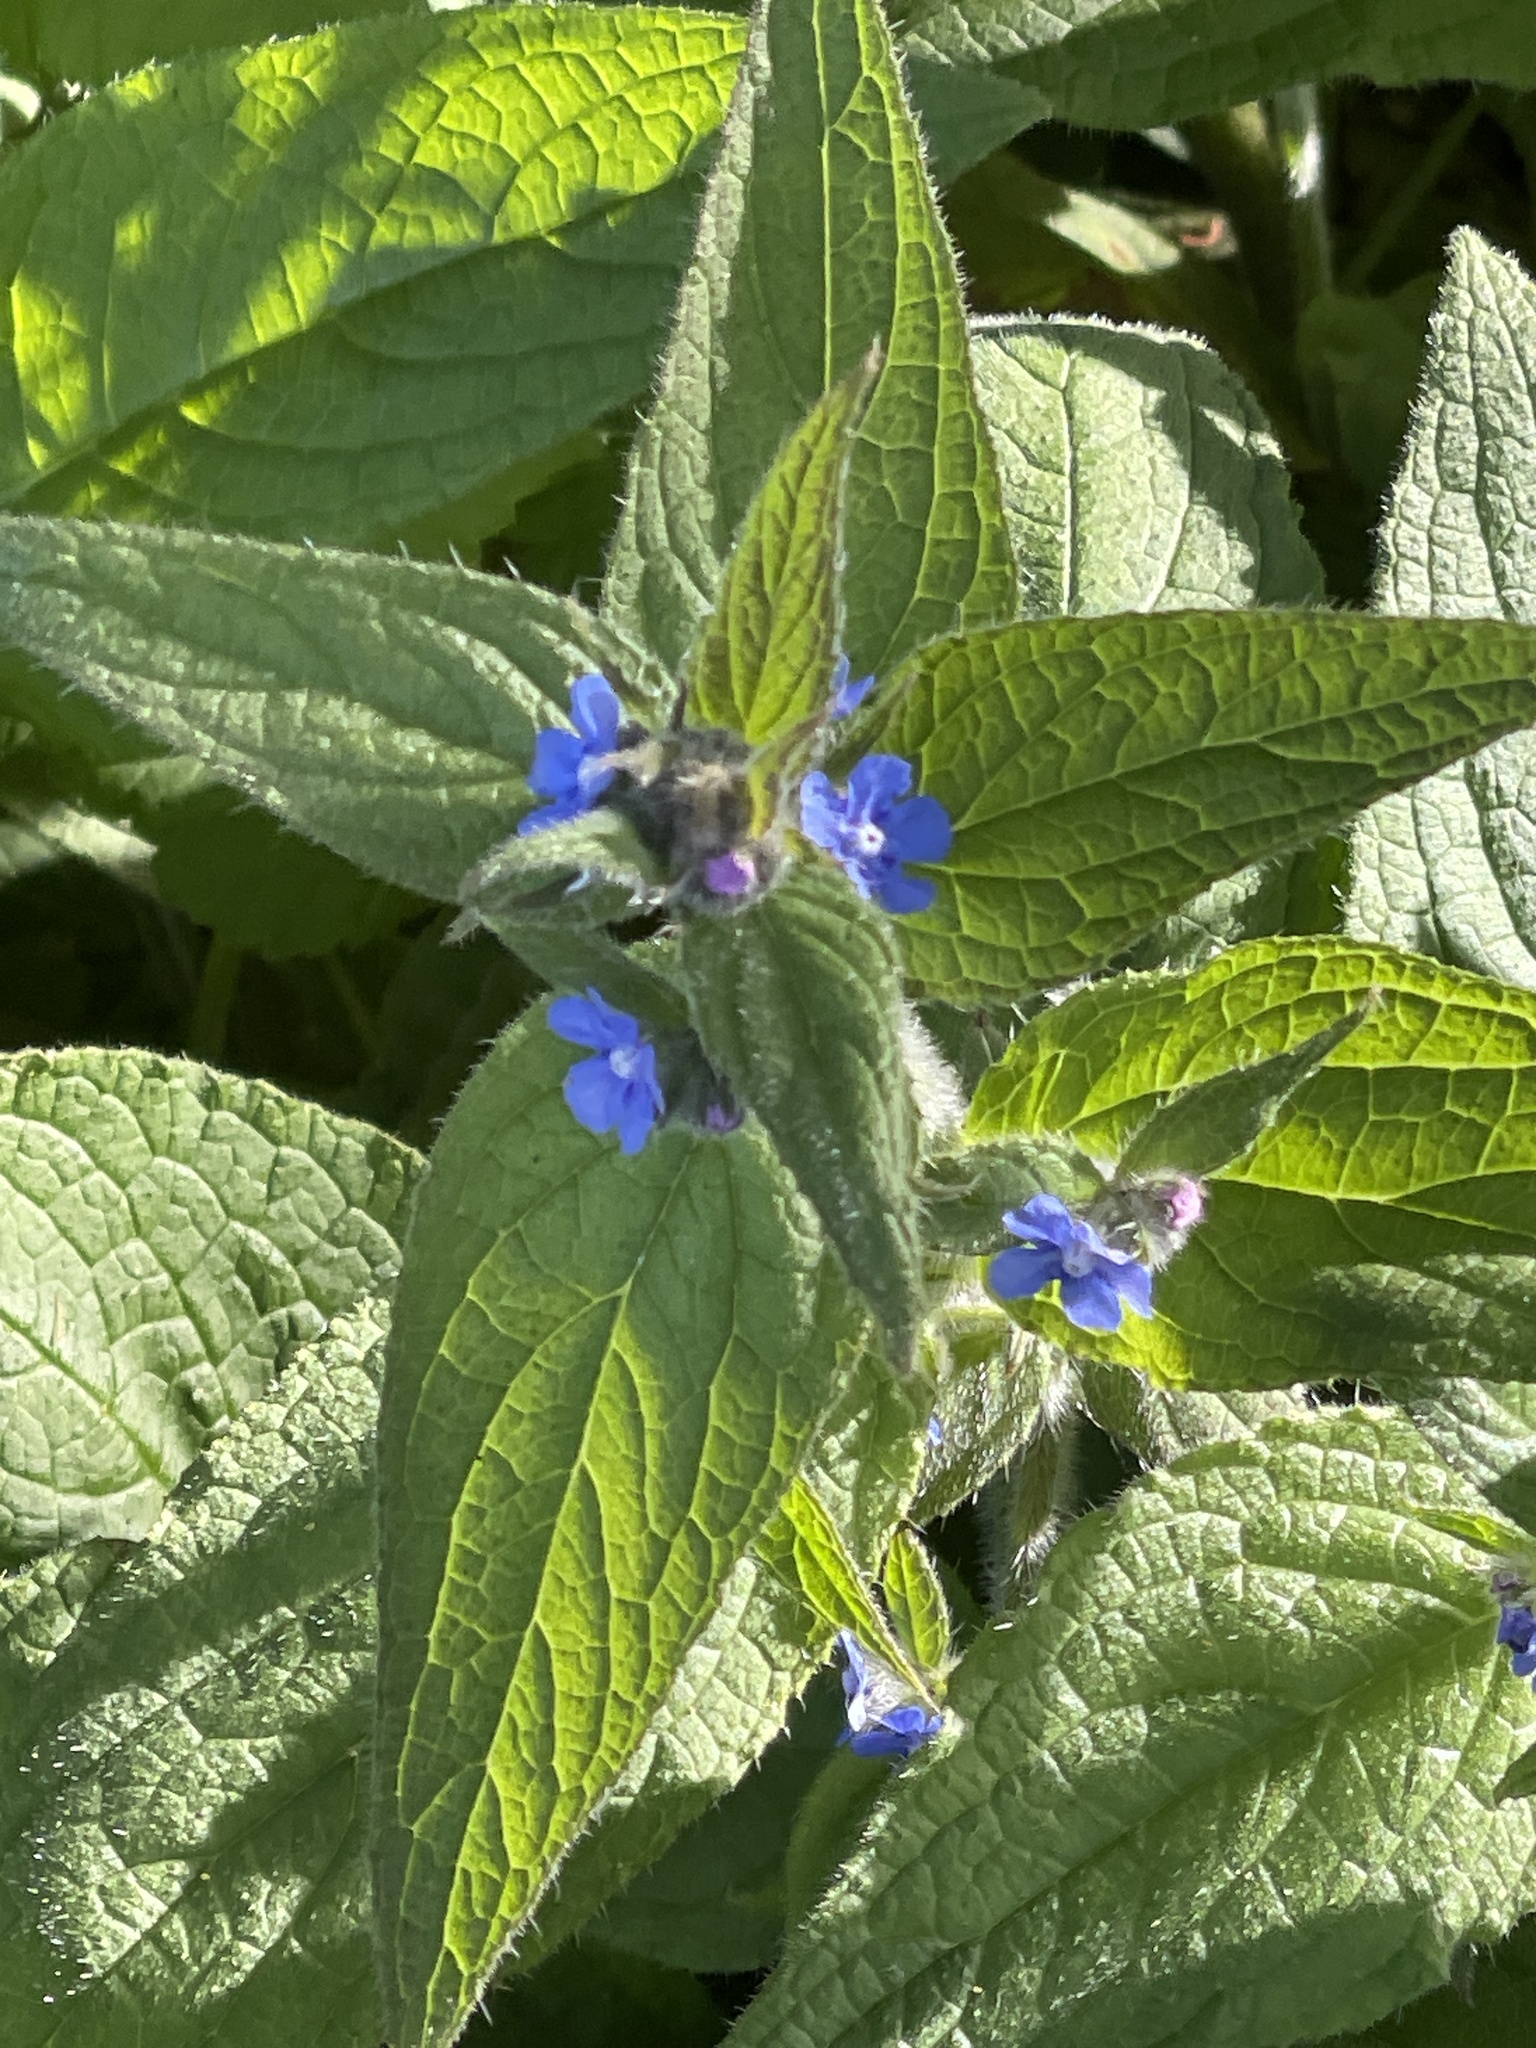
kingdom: Plantae
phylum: Tracheophyta
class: Magnoliopsida
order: Boraginales
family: Boraginaceae
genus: Pentaglottis
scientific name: Pentaglottis sempervirens
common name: Green alkanet
